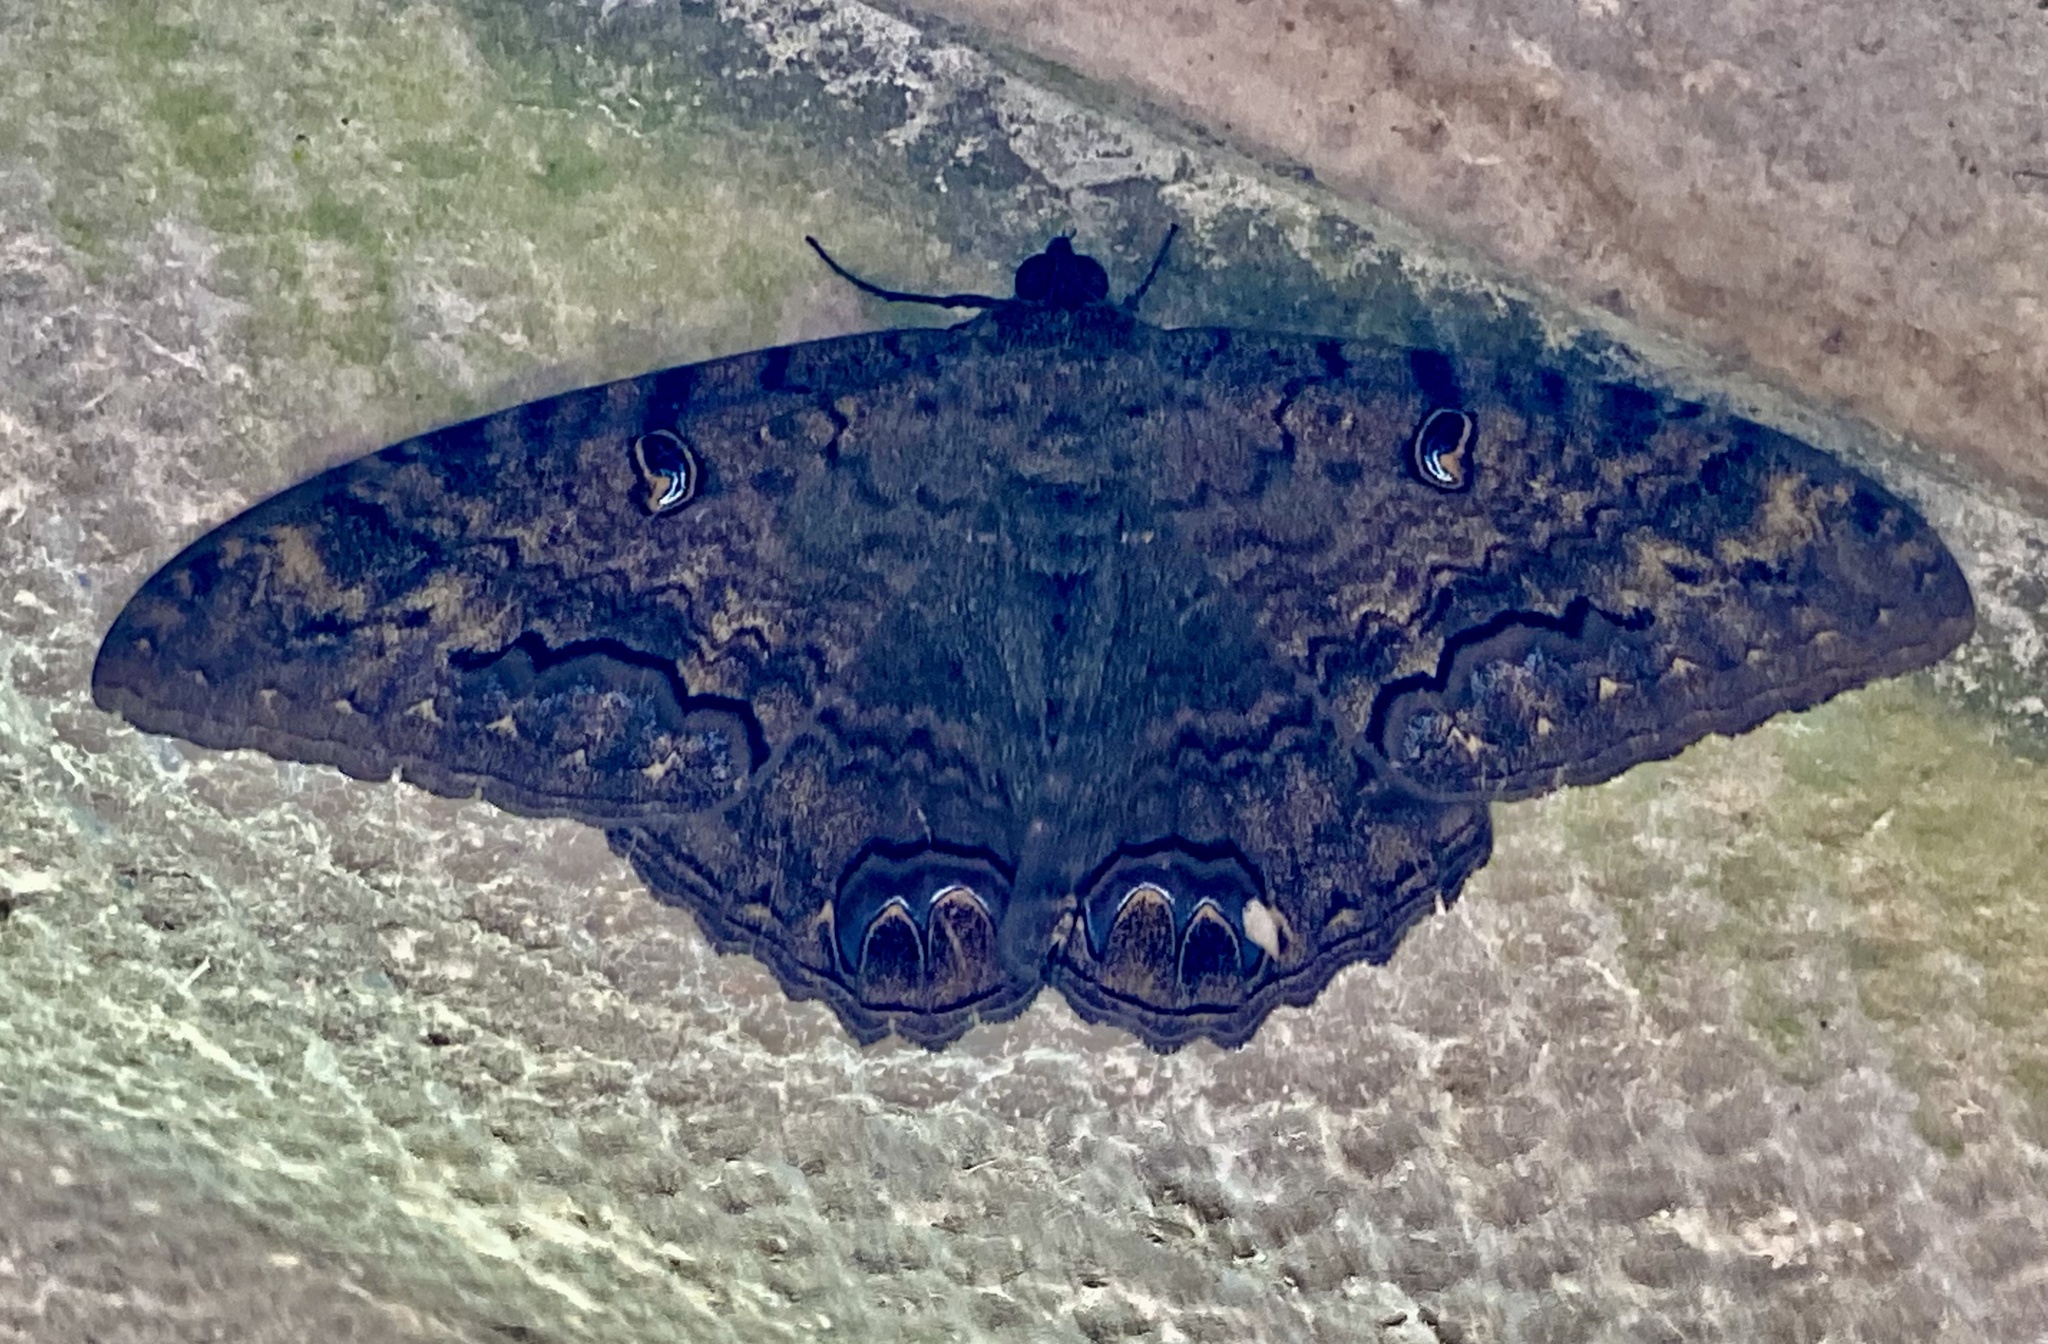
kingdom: Animalia
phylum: Arthropoda
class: Insecta
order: Lepidoptera
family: Erebidae
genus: Ascalapha
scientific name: Ascalapha odorata
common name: Black witch
